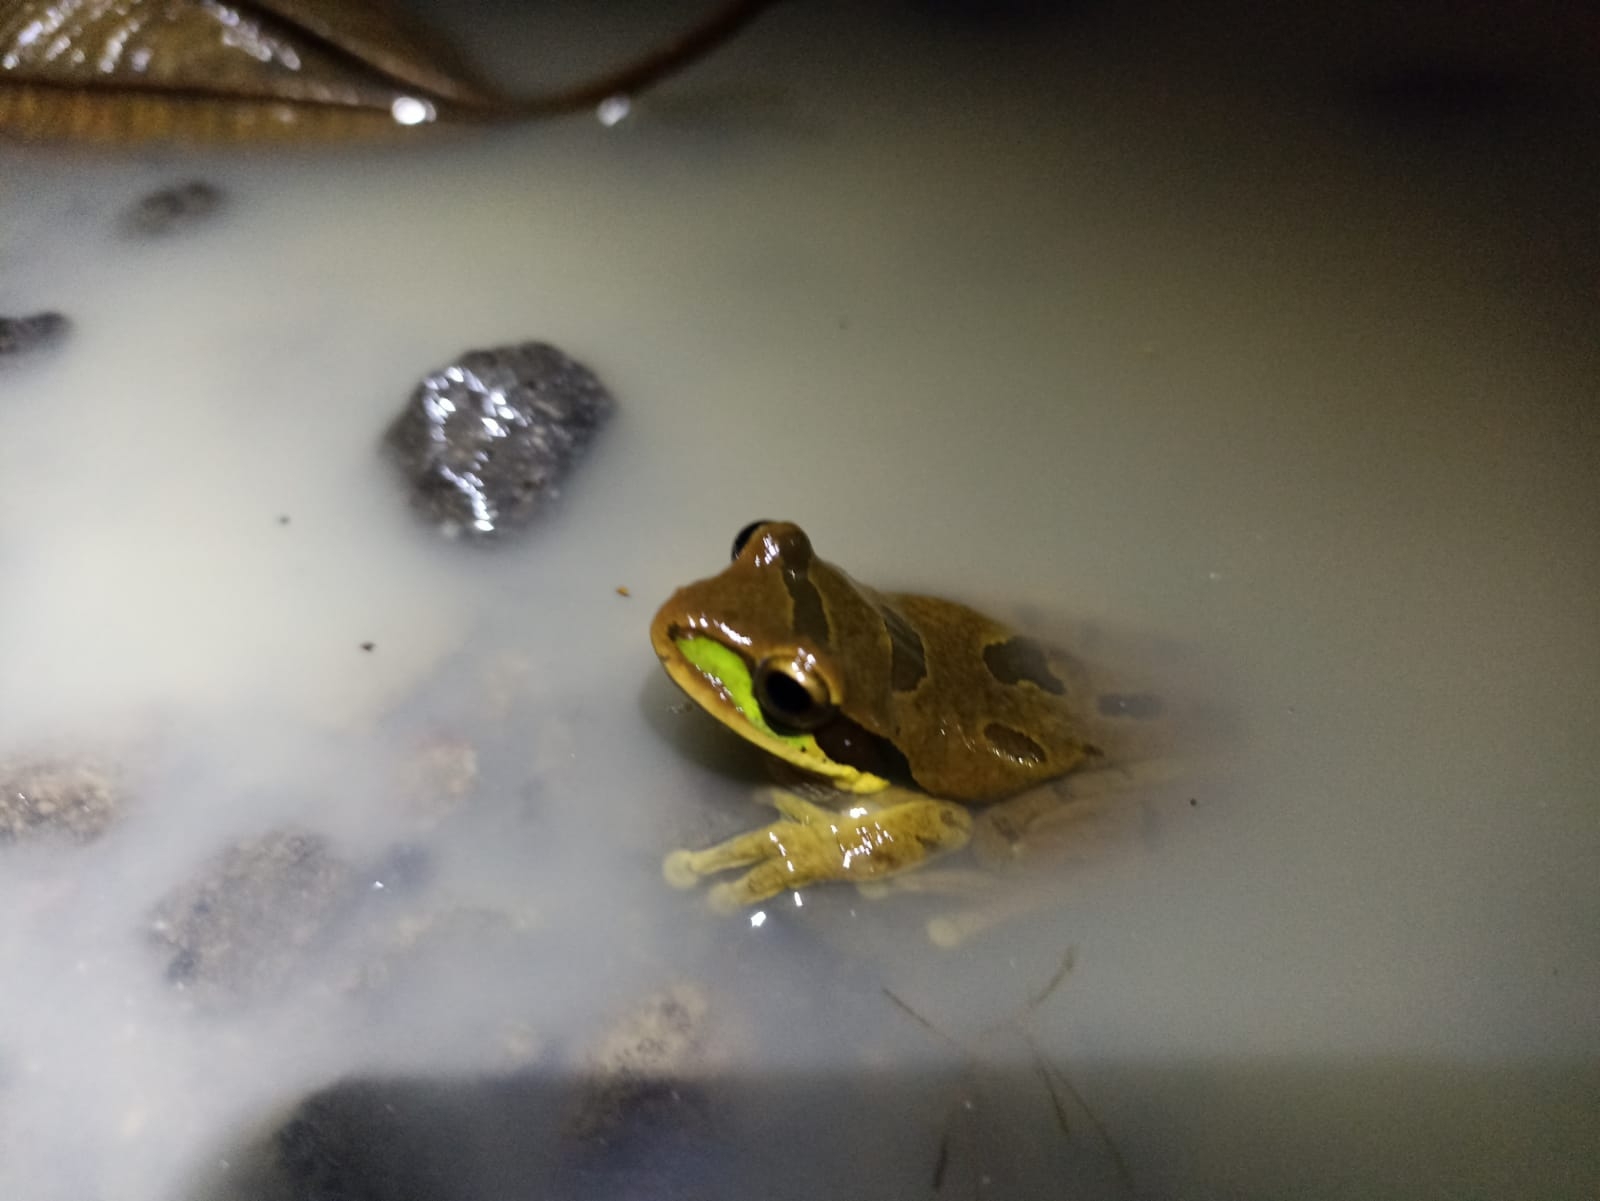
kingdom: Animalia
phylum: Chordata
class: Amphibia
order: Anura
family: Hylidae
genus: Smilisca
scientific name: Smilisca phaeota
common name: Central american smilisca
